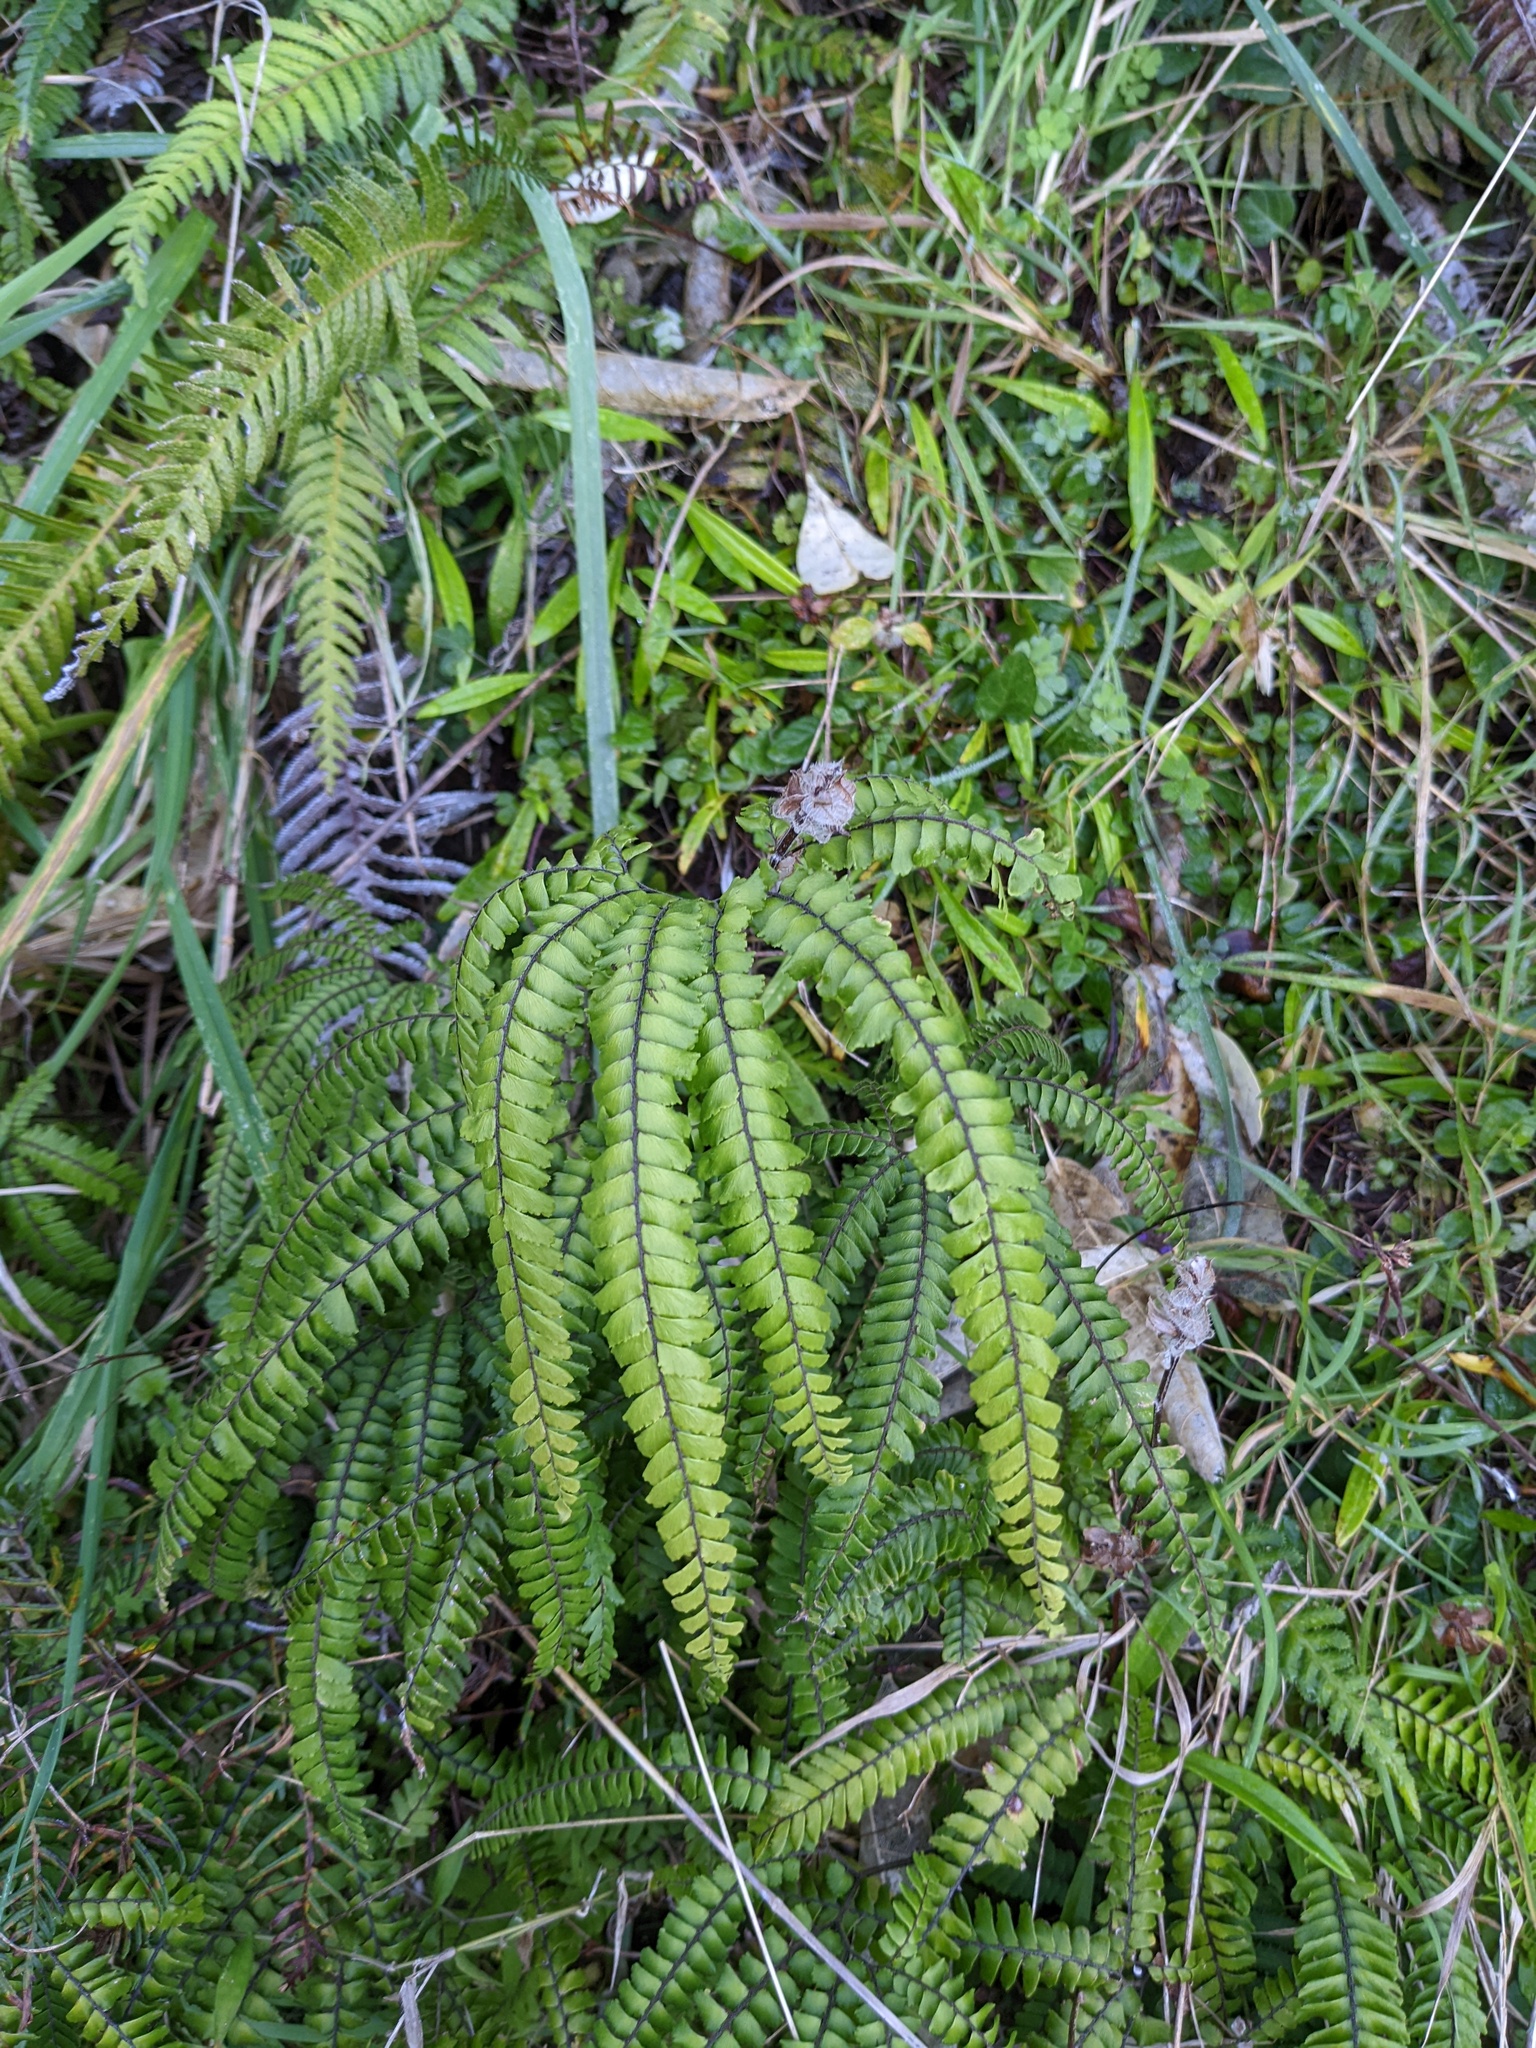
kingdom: Plantae
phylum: Tracheophyta
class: Polypodiopsida
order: Polypodiales
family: Pteridaceae
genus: Adiantum
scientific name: Adiantum hispidulum
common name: Rough maidenhair
